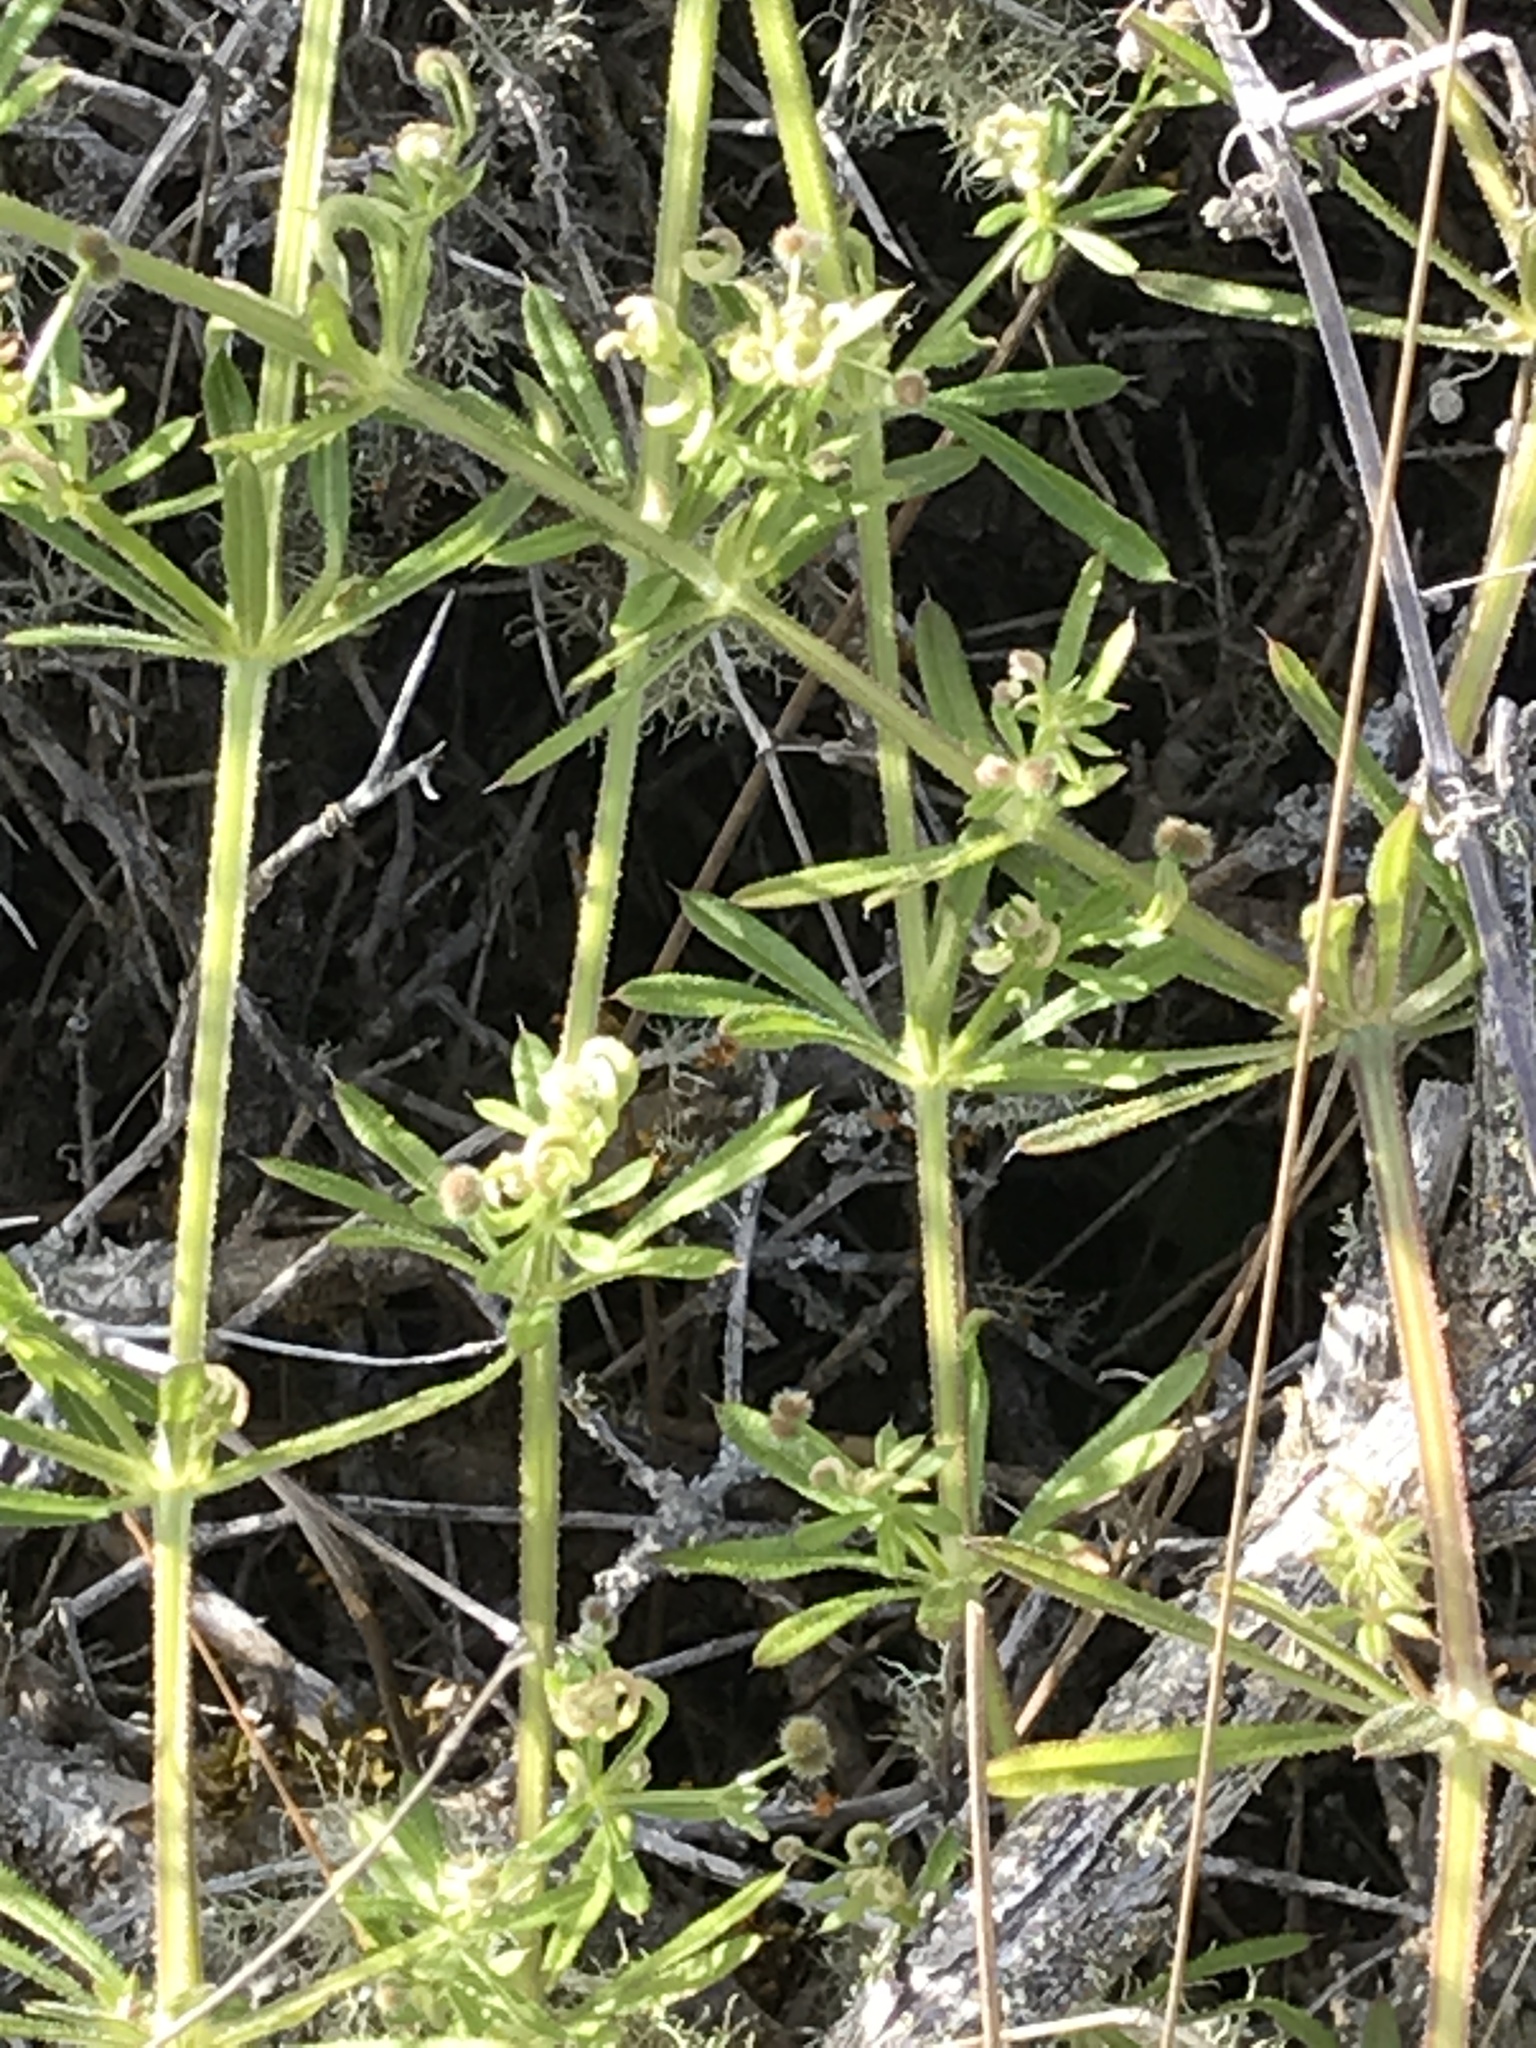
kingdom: Plantae
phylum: Tracheophyta
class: Magnoliopsida
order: Gentianales
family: Rubiaceae
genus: Galium
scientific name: Galium aparine
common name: Cleavers
